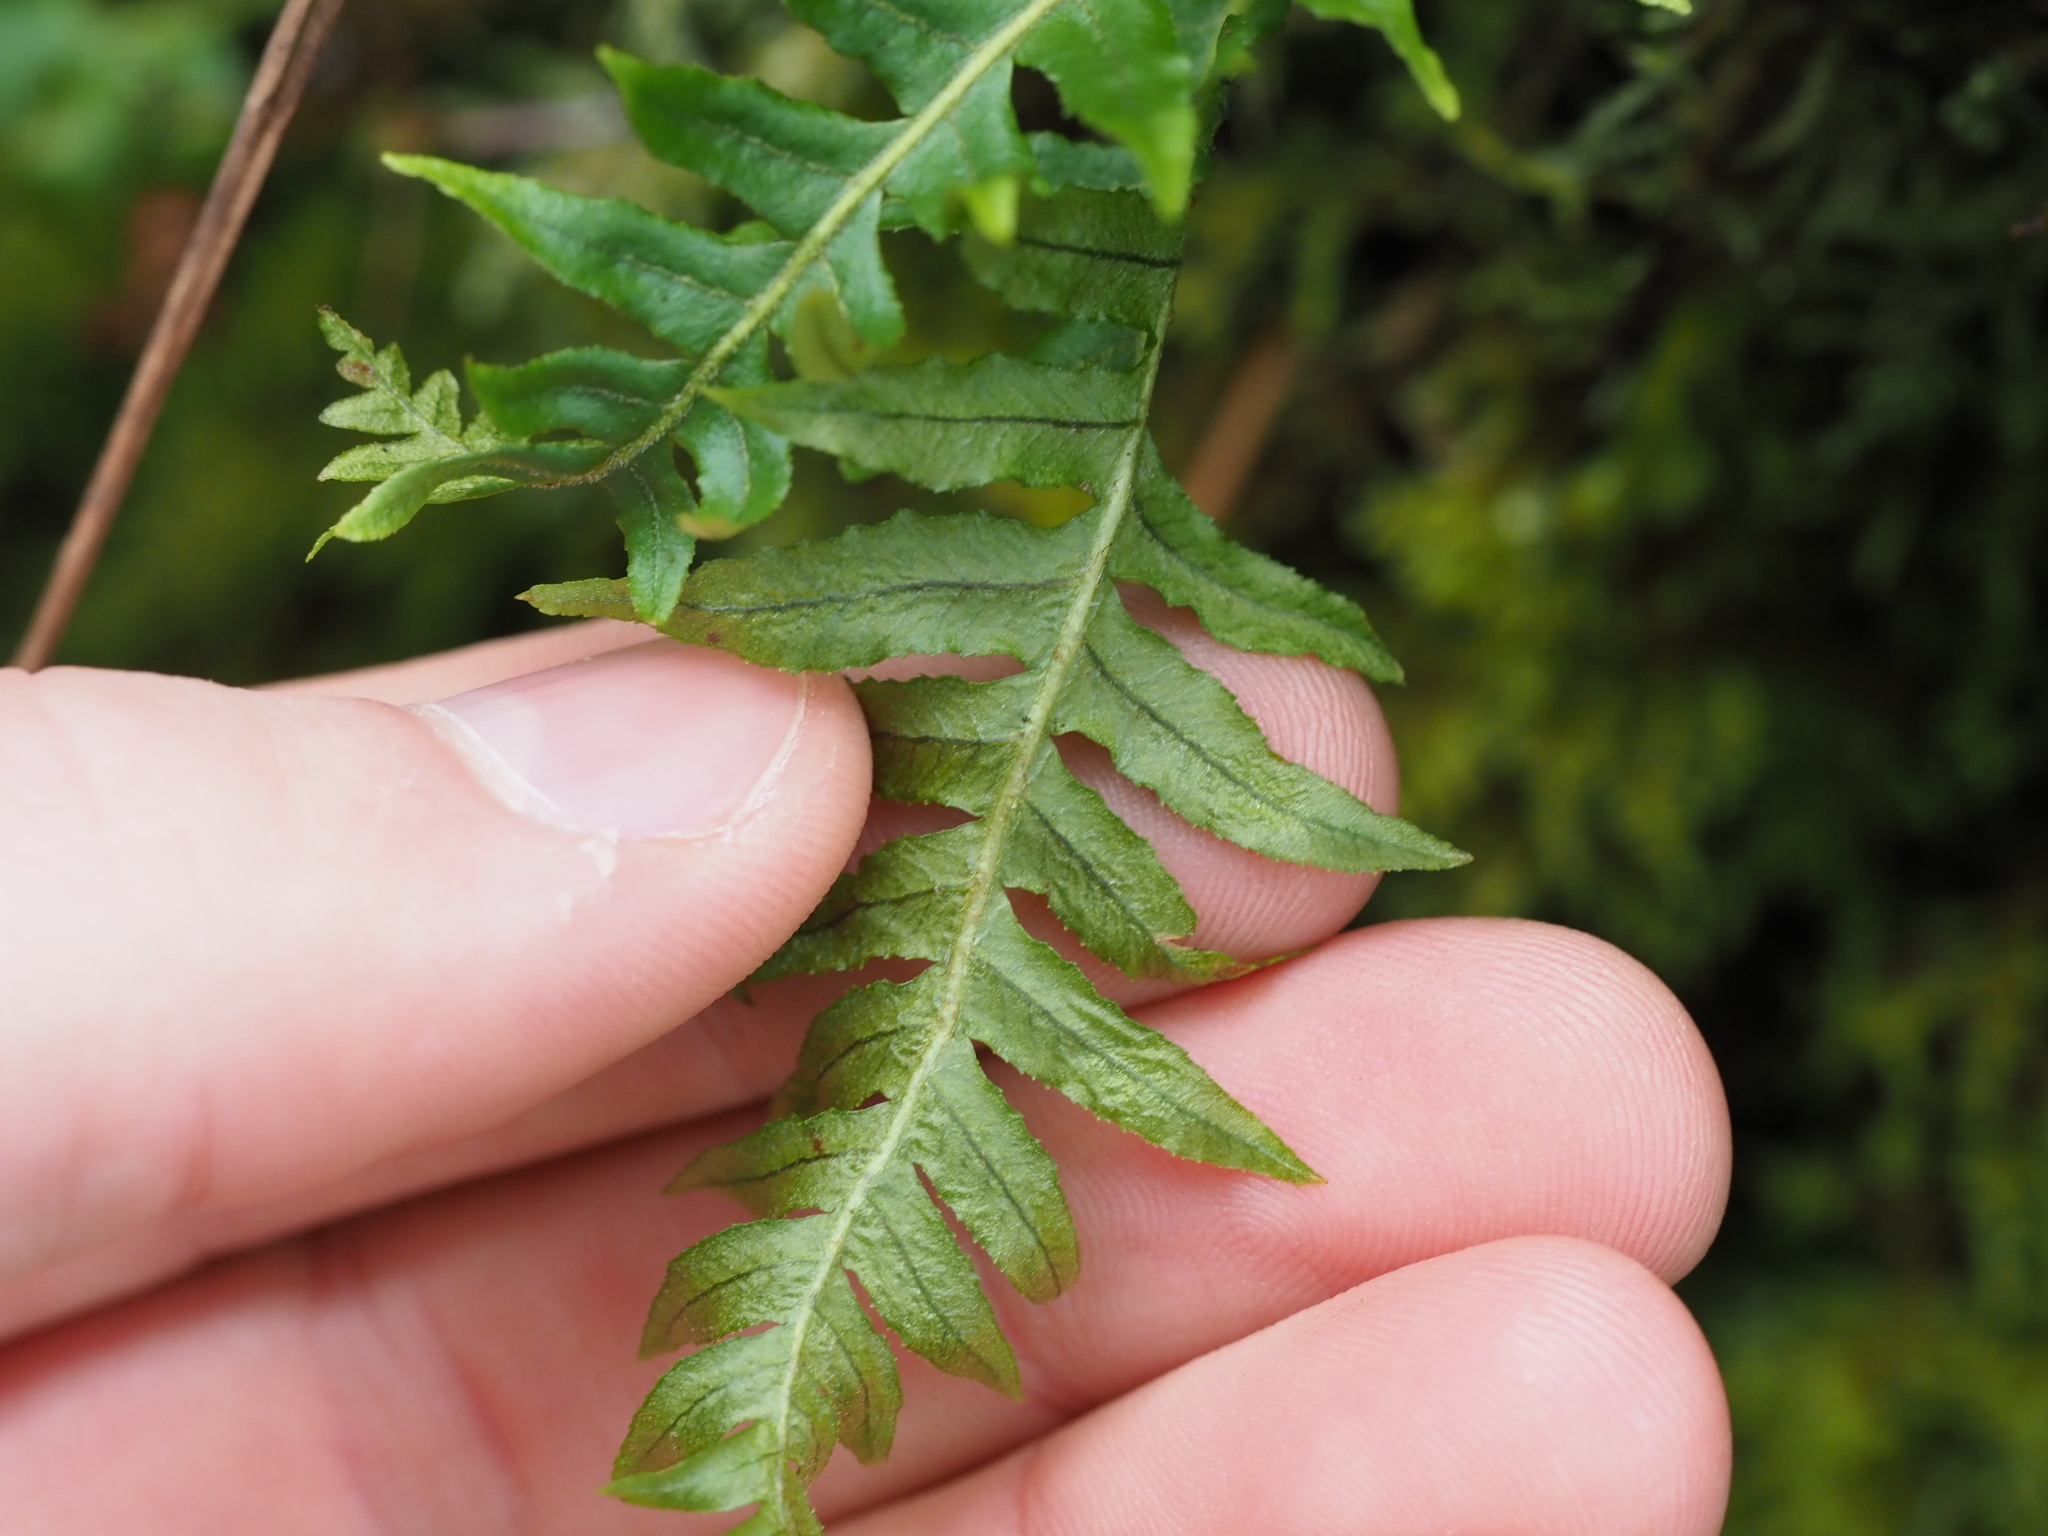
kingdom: Plantae
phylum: Tracheophyta
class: Polypodiopsida
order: Polypodiales
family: Polypodiaceae
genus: Polypodium
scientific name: Polypodium glycyrrhiza
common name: Licorice fern
